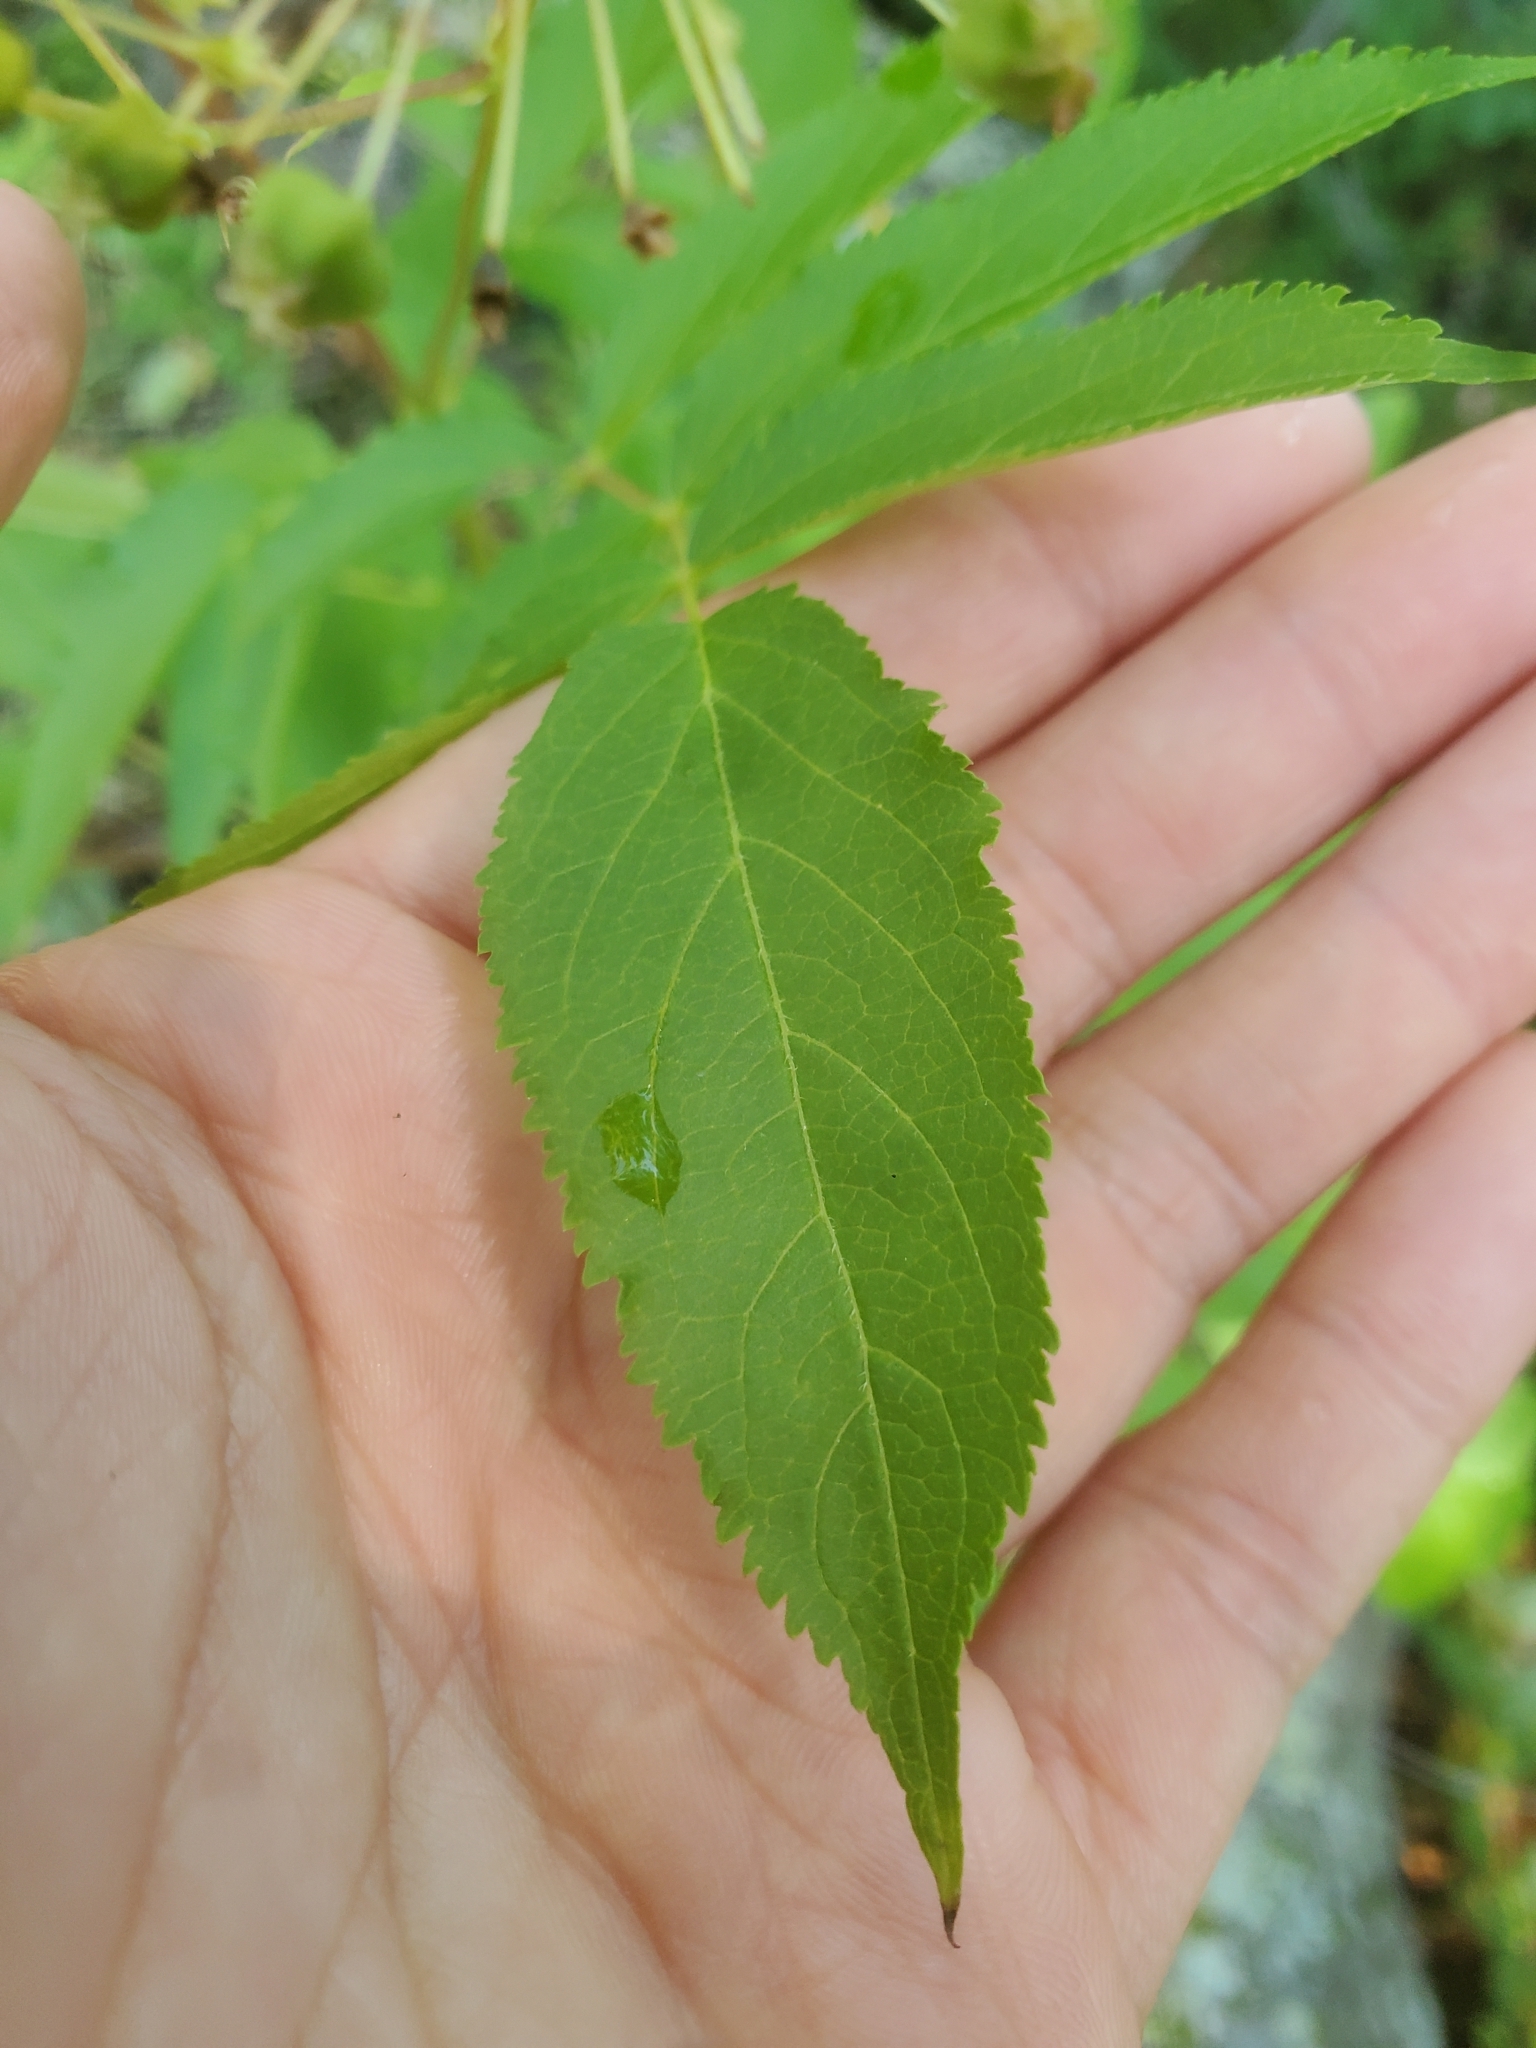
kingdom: Plantae
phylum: Tracheophyta
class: Magnoliopsida
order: Apiales
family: Araliaceae
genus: Aralia
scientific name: Aralia hispida
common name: Bristly sarsaparilla
